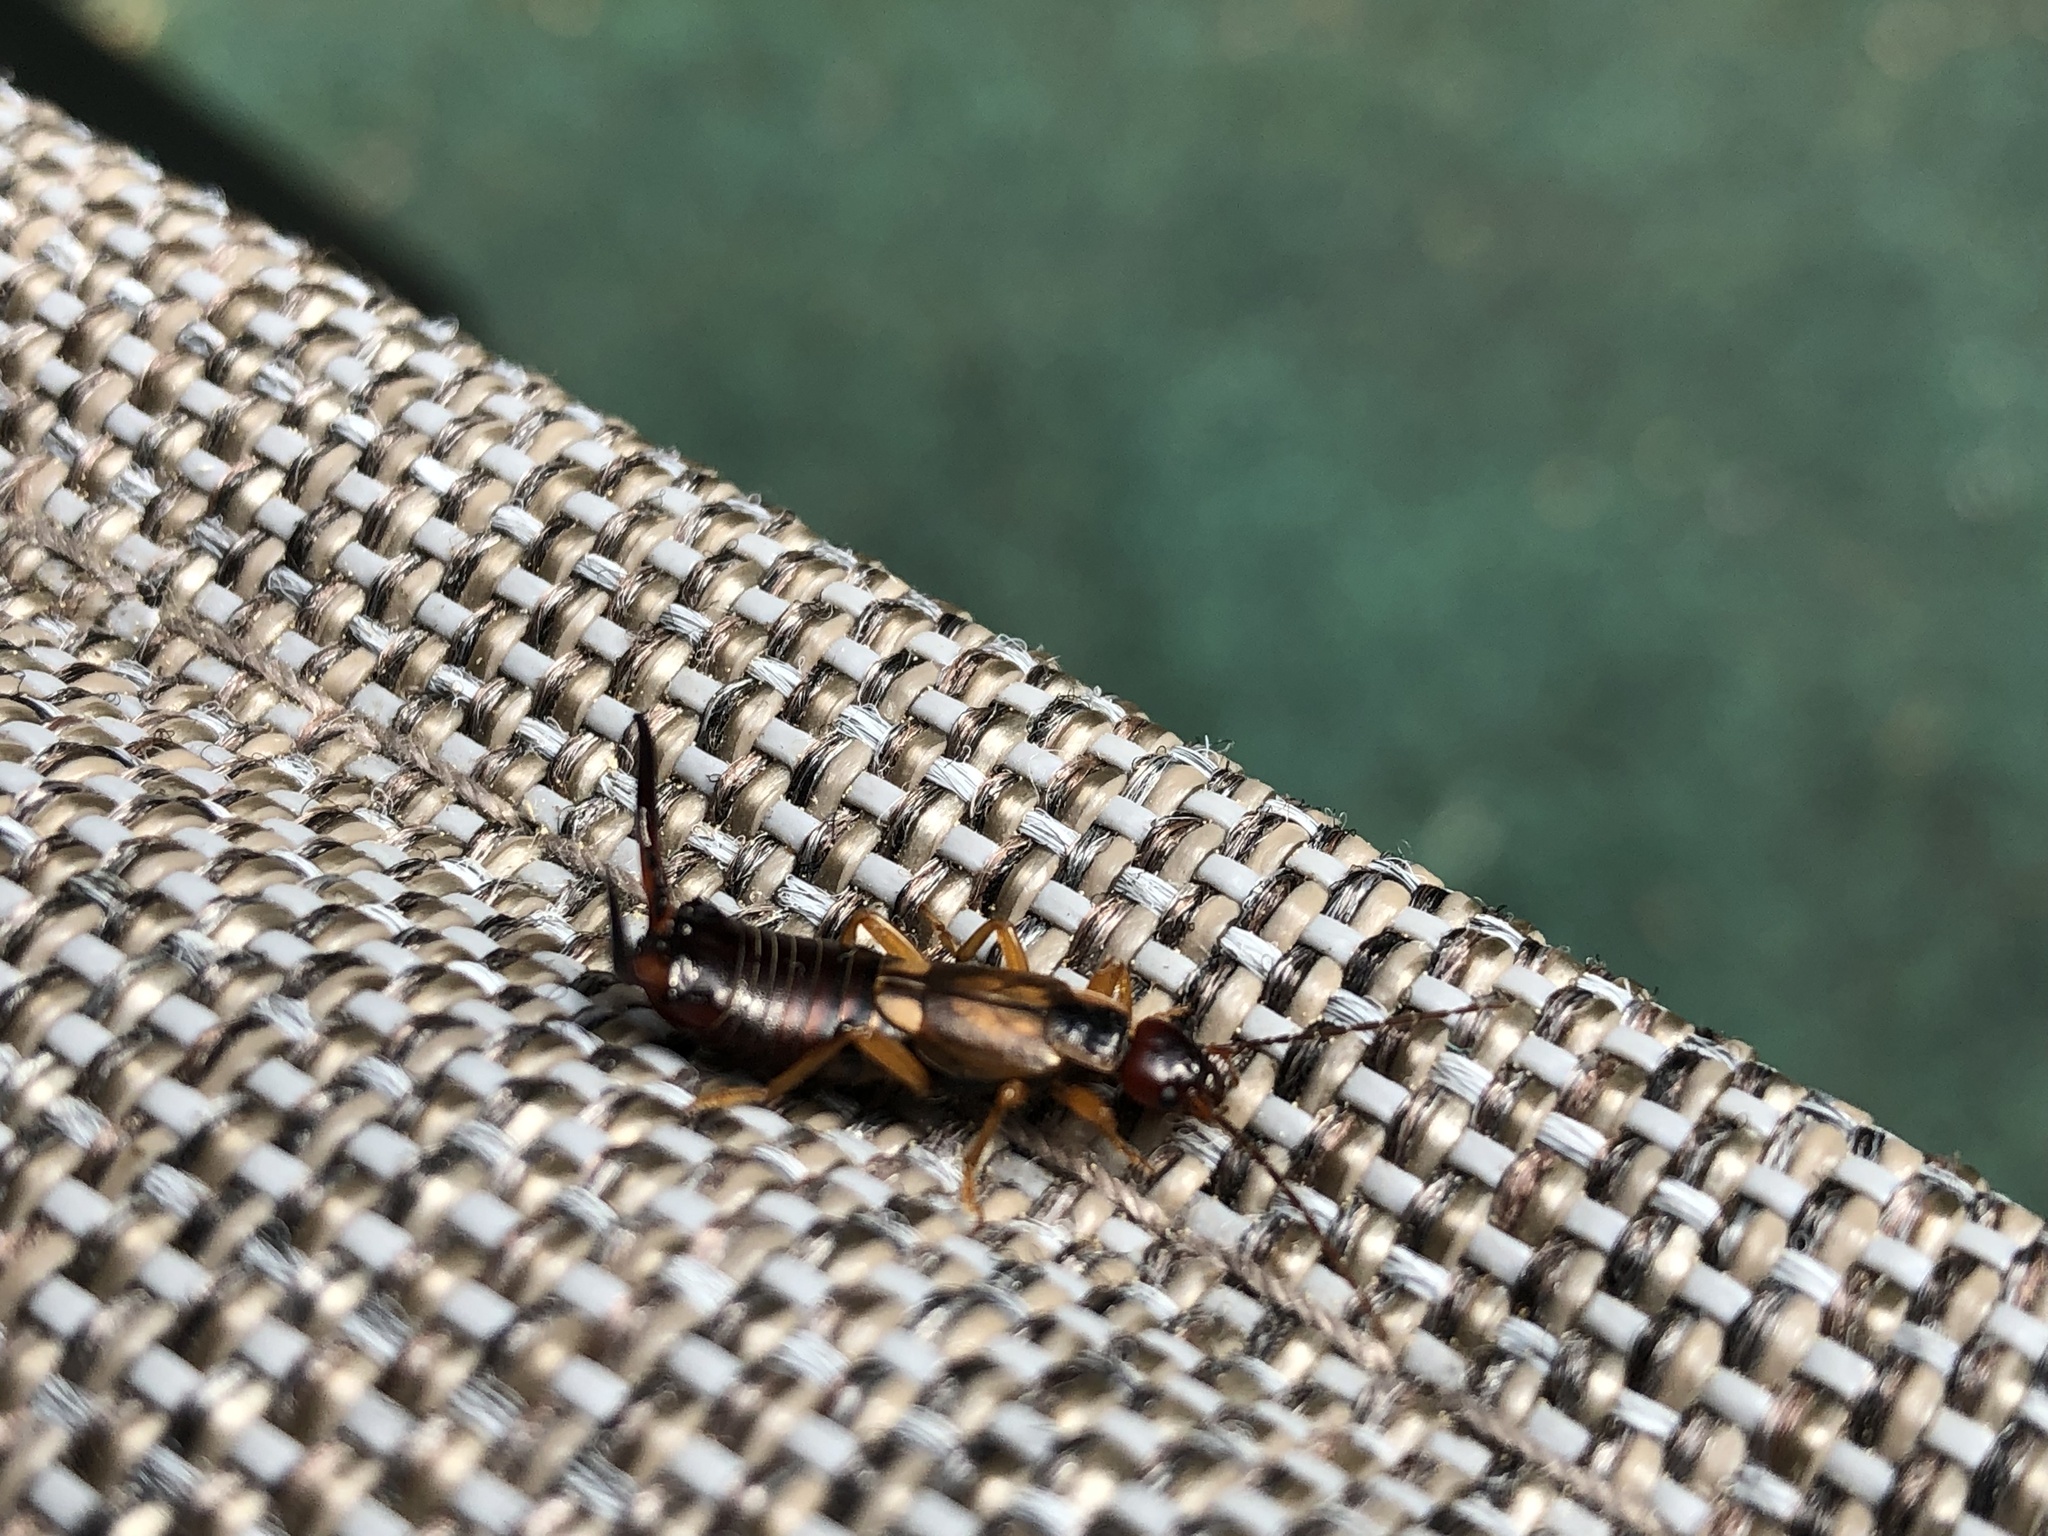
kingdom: Animalia
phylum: Arthropoda
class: Insecta
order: Dermaptera
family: Forficulidae
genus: Forficula
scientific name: Forficula
